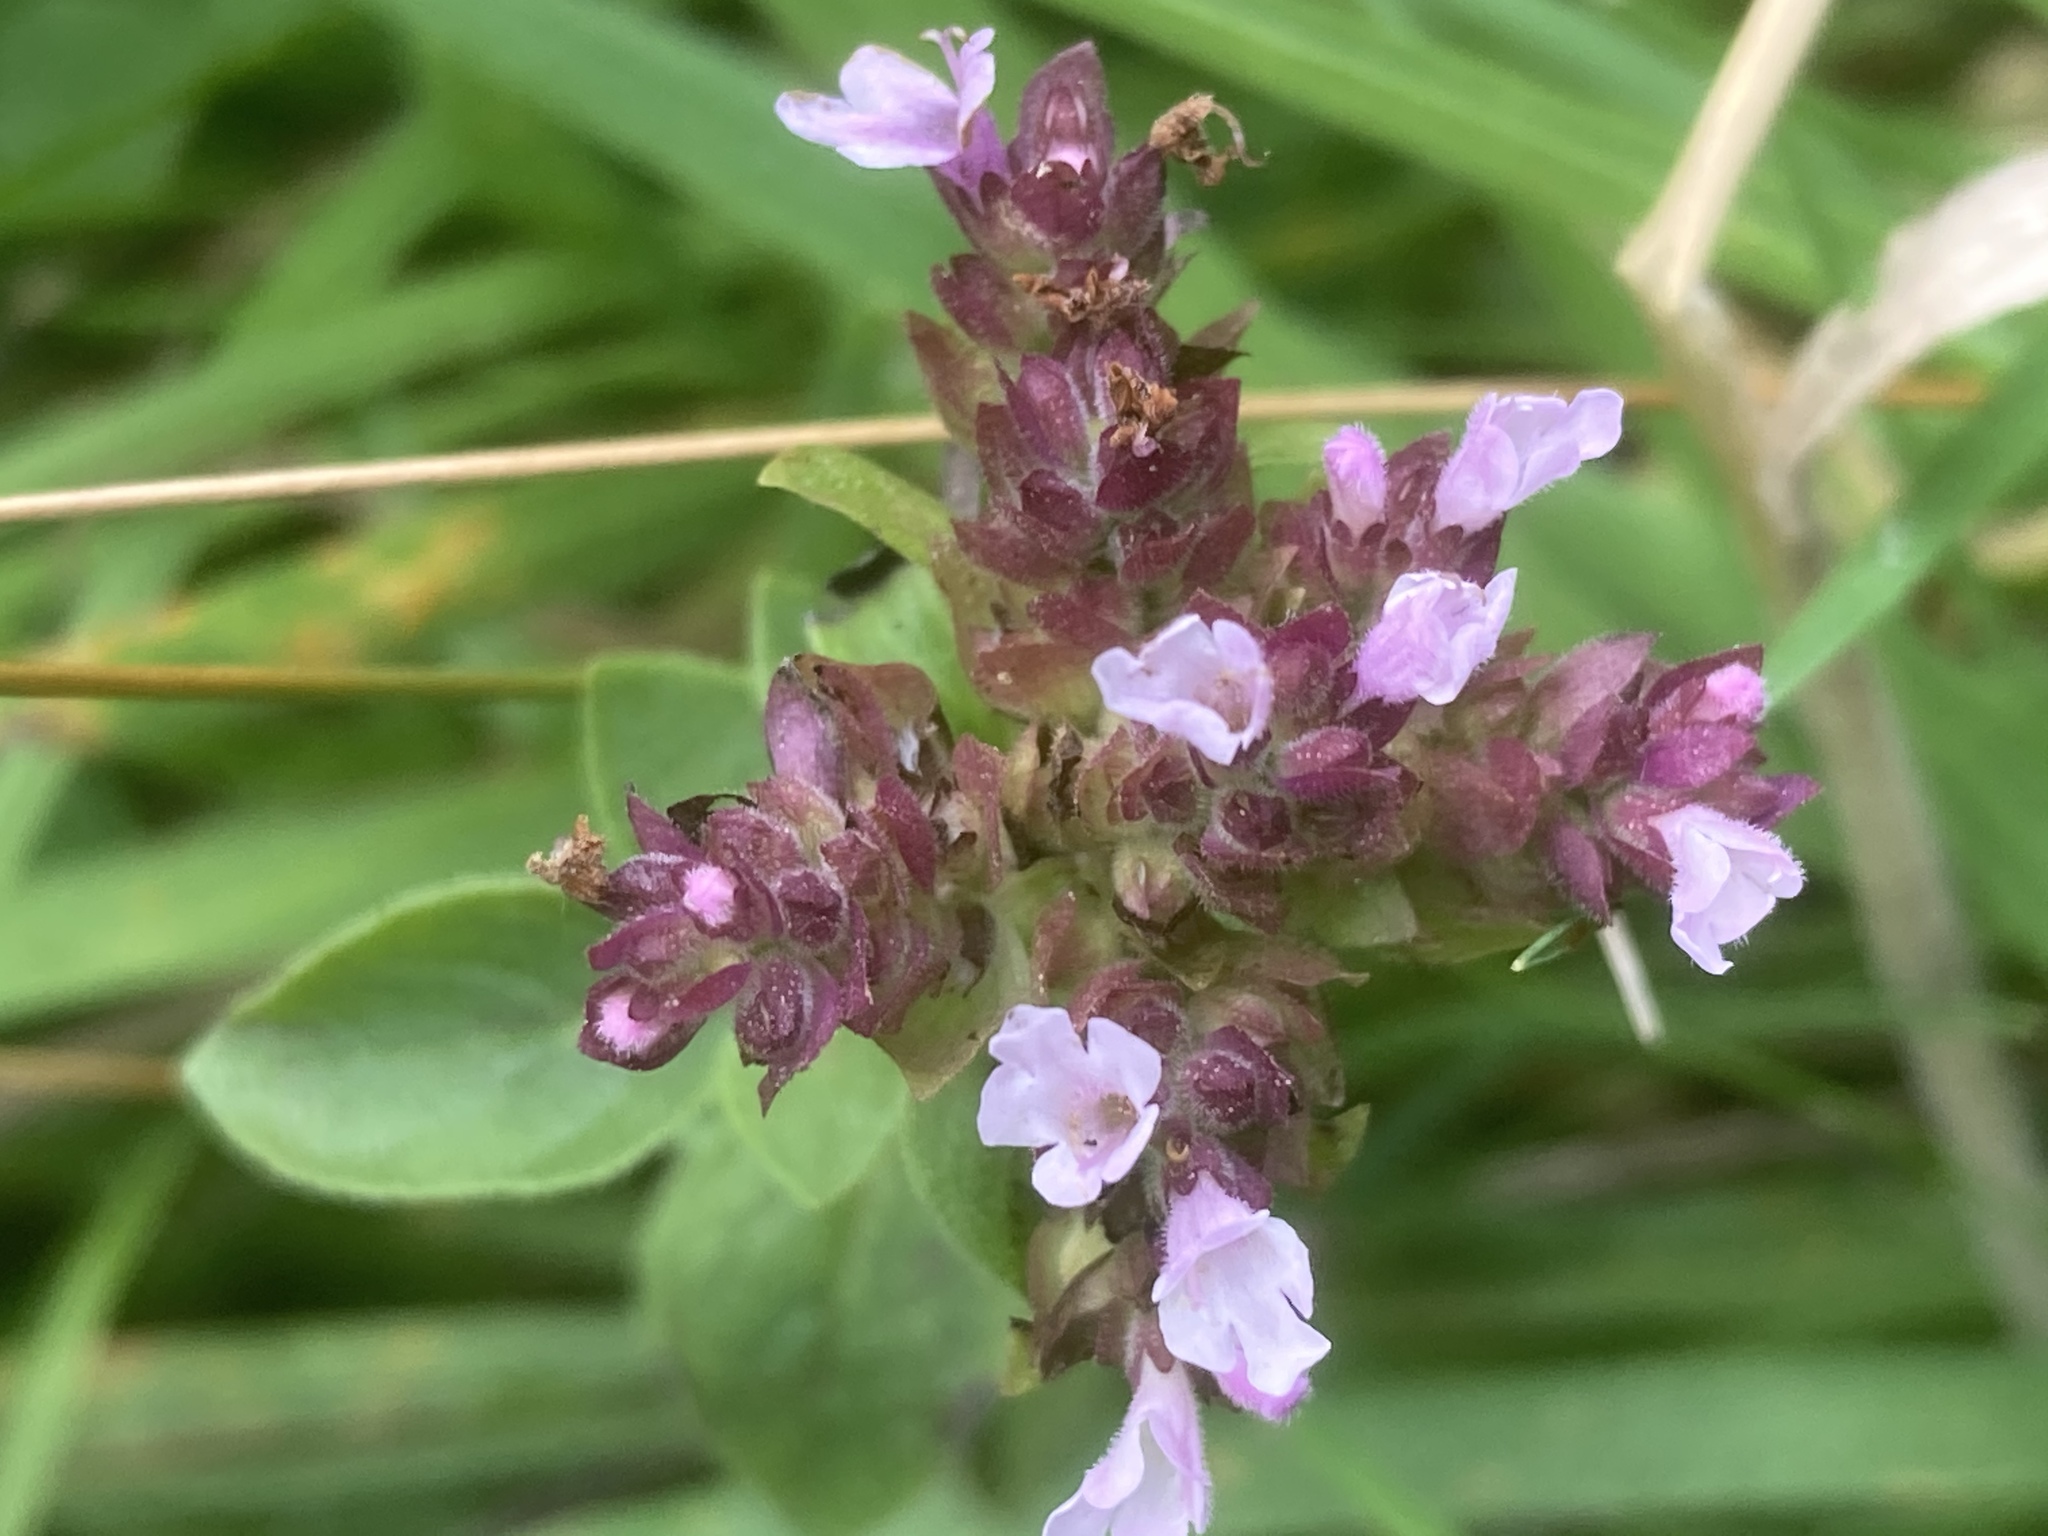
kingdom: Plantae
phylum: Tracheophyta
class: Magnoliopsida
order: Lamiales
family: Lamiaceae
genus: Origanum
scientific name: Origanum vulgare
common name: Wild marjoram
